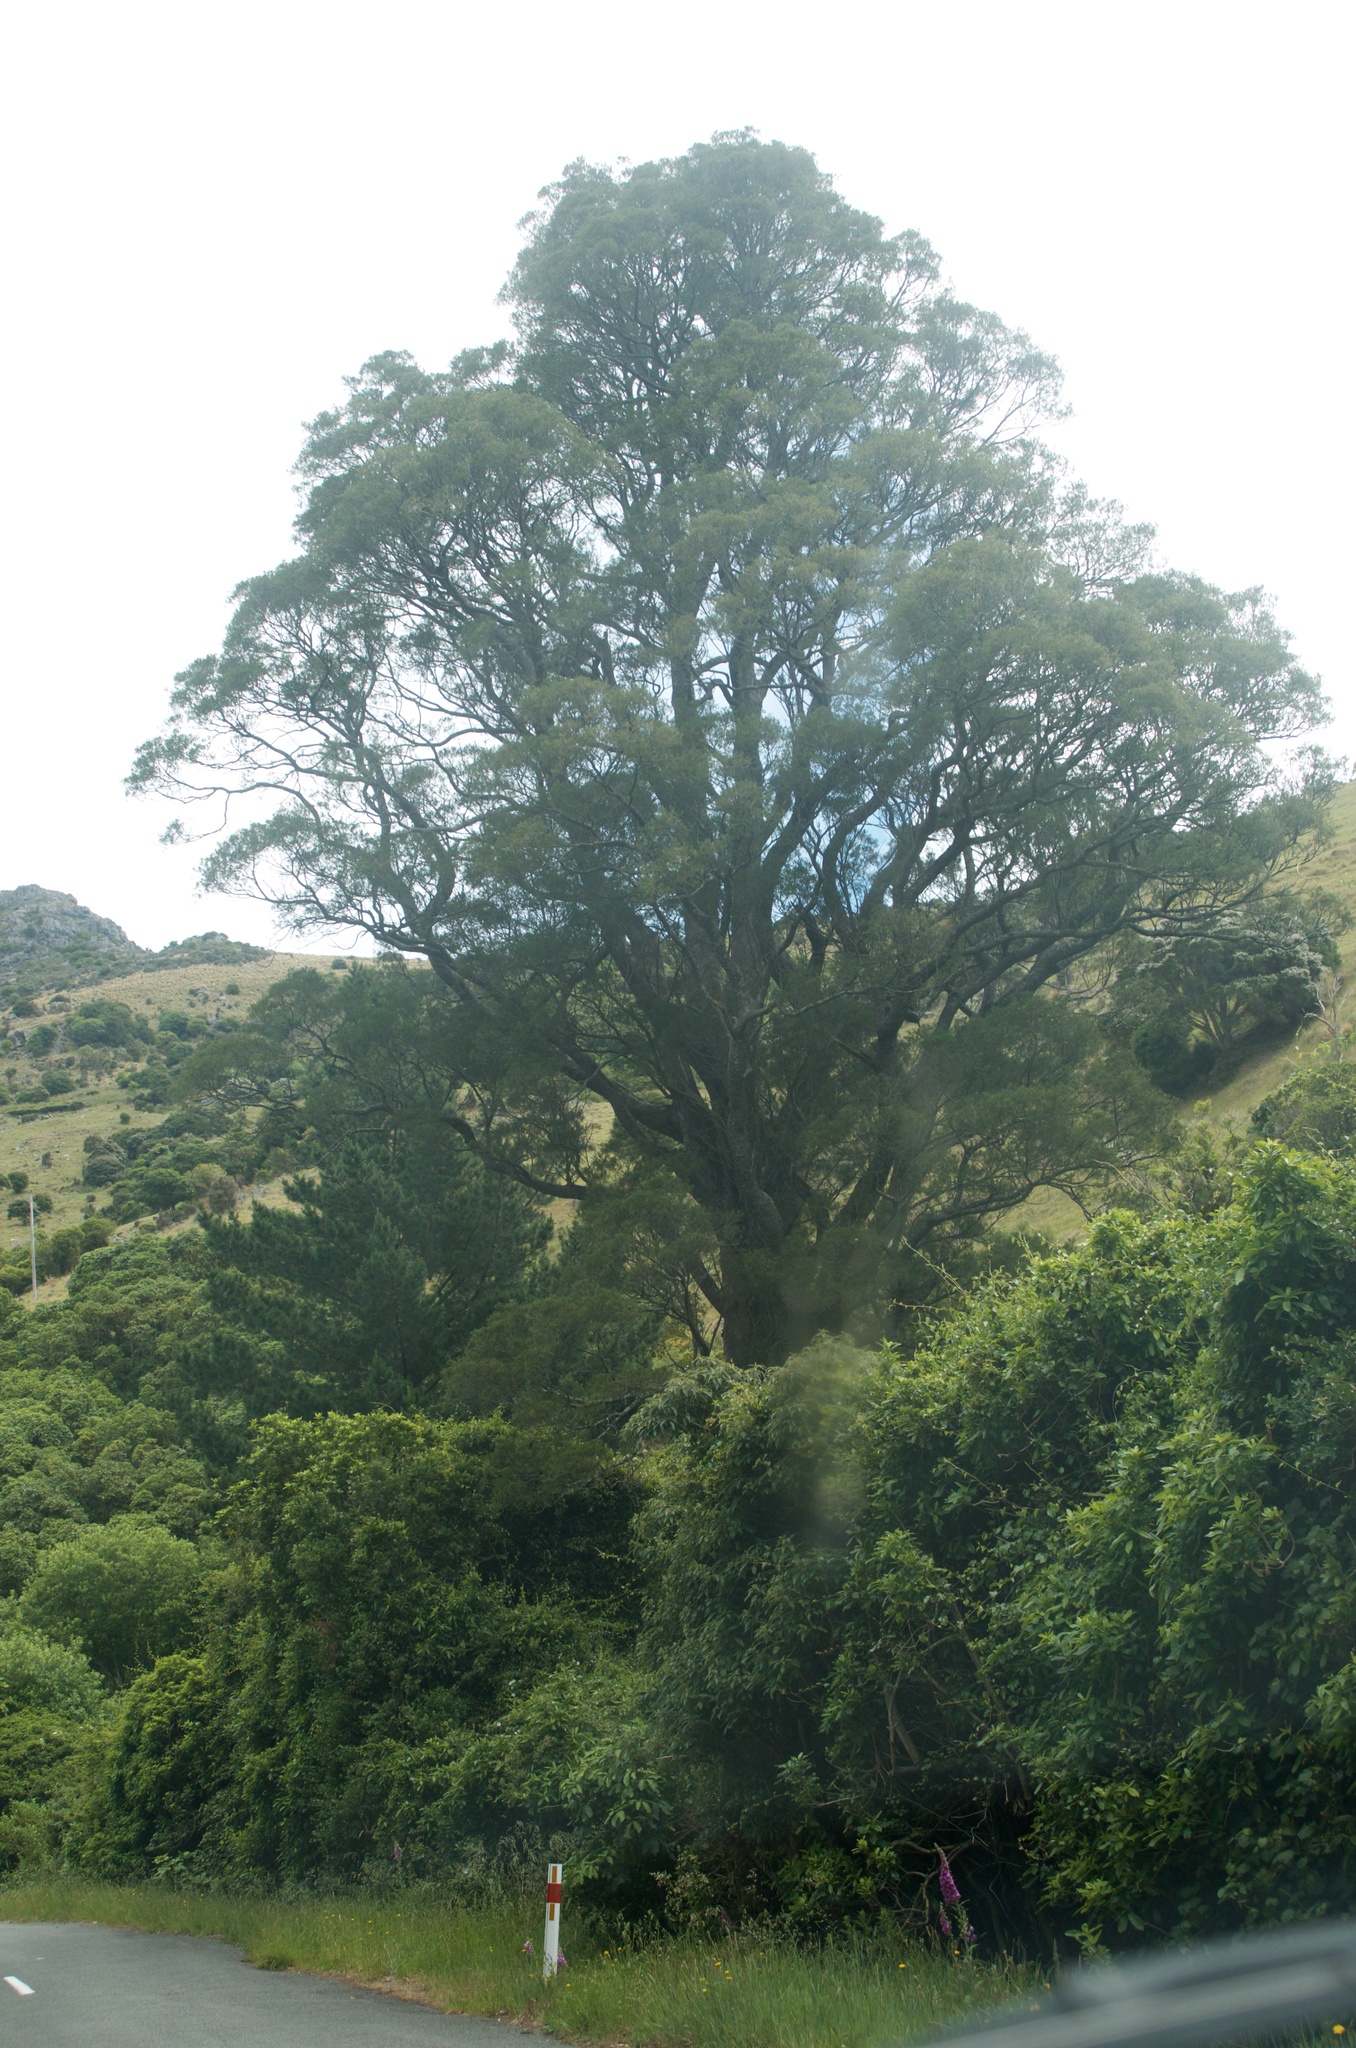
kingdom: Plantae
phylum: Tracheophyta
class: Pinopsida
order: Pinales
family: Podocarpaceae
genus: Dacrycarpus
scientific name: Dacrycarpus dacrydioides
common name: White pine
